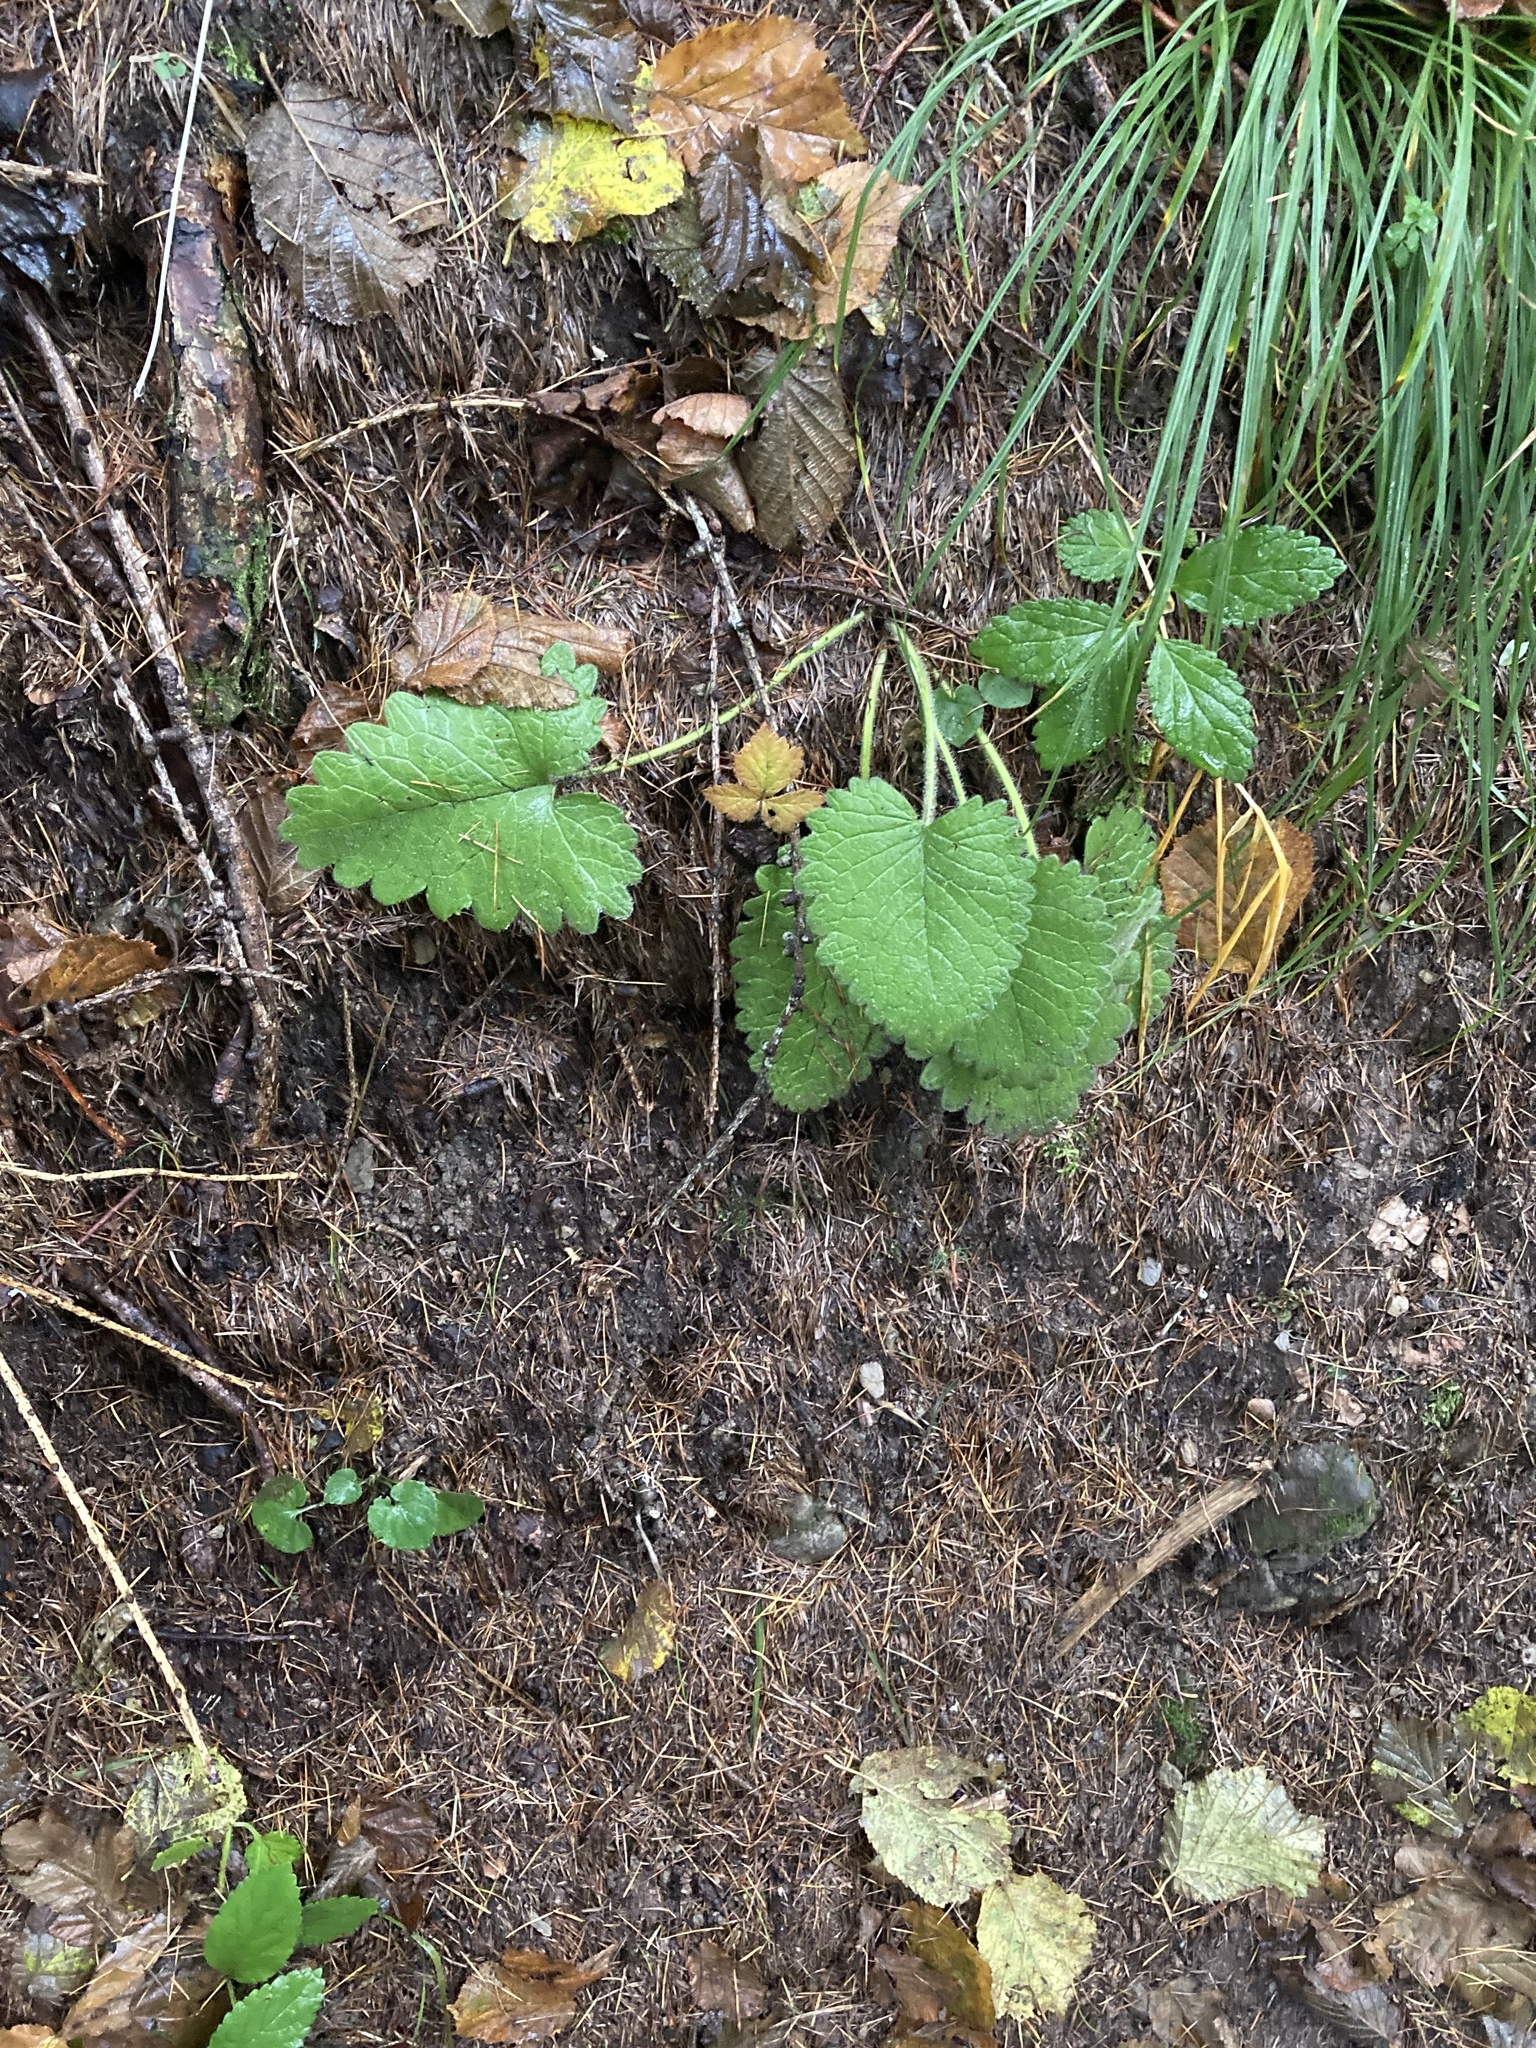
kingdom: Plantae
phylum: Tracheophyta
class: Magnoliopsida
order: Lamiales
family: Lamiaceae
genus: Betonica
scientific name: Betonica alopecuros
